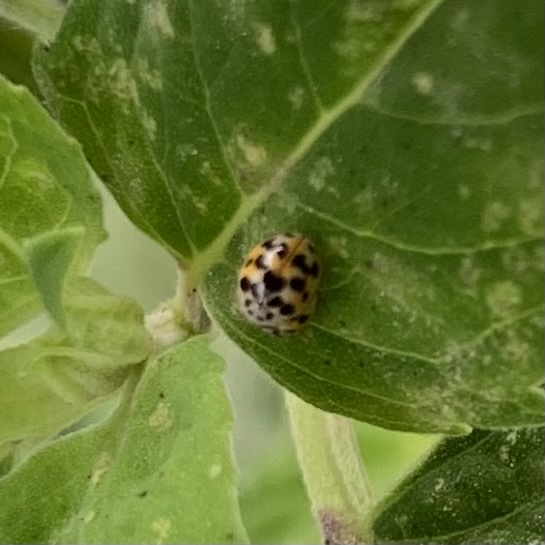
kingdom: Animalia
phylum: Arthropoda
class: Insecta
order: Coleoptera
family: Coccinellidae
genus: Psyllobora
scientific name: Psyllobora vigintimaculata
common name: Ladybird beetle
